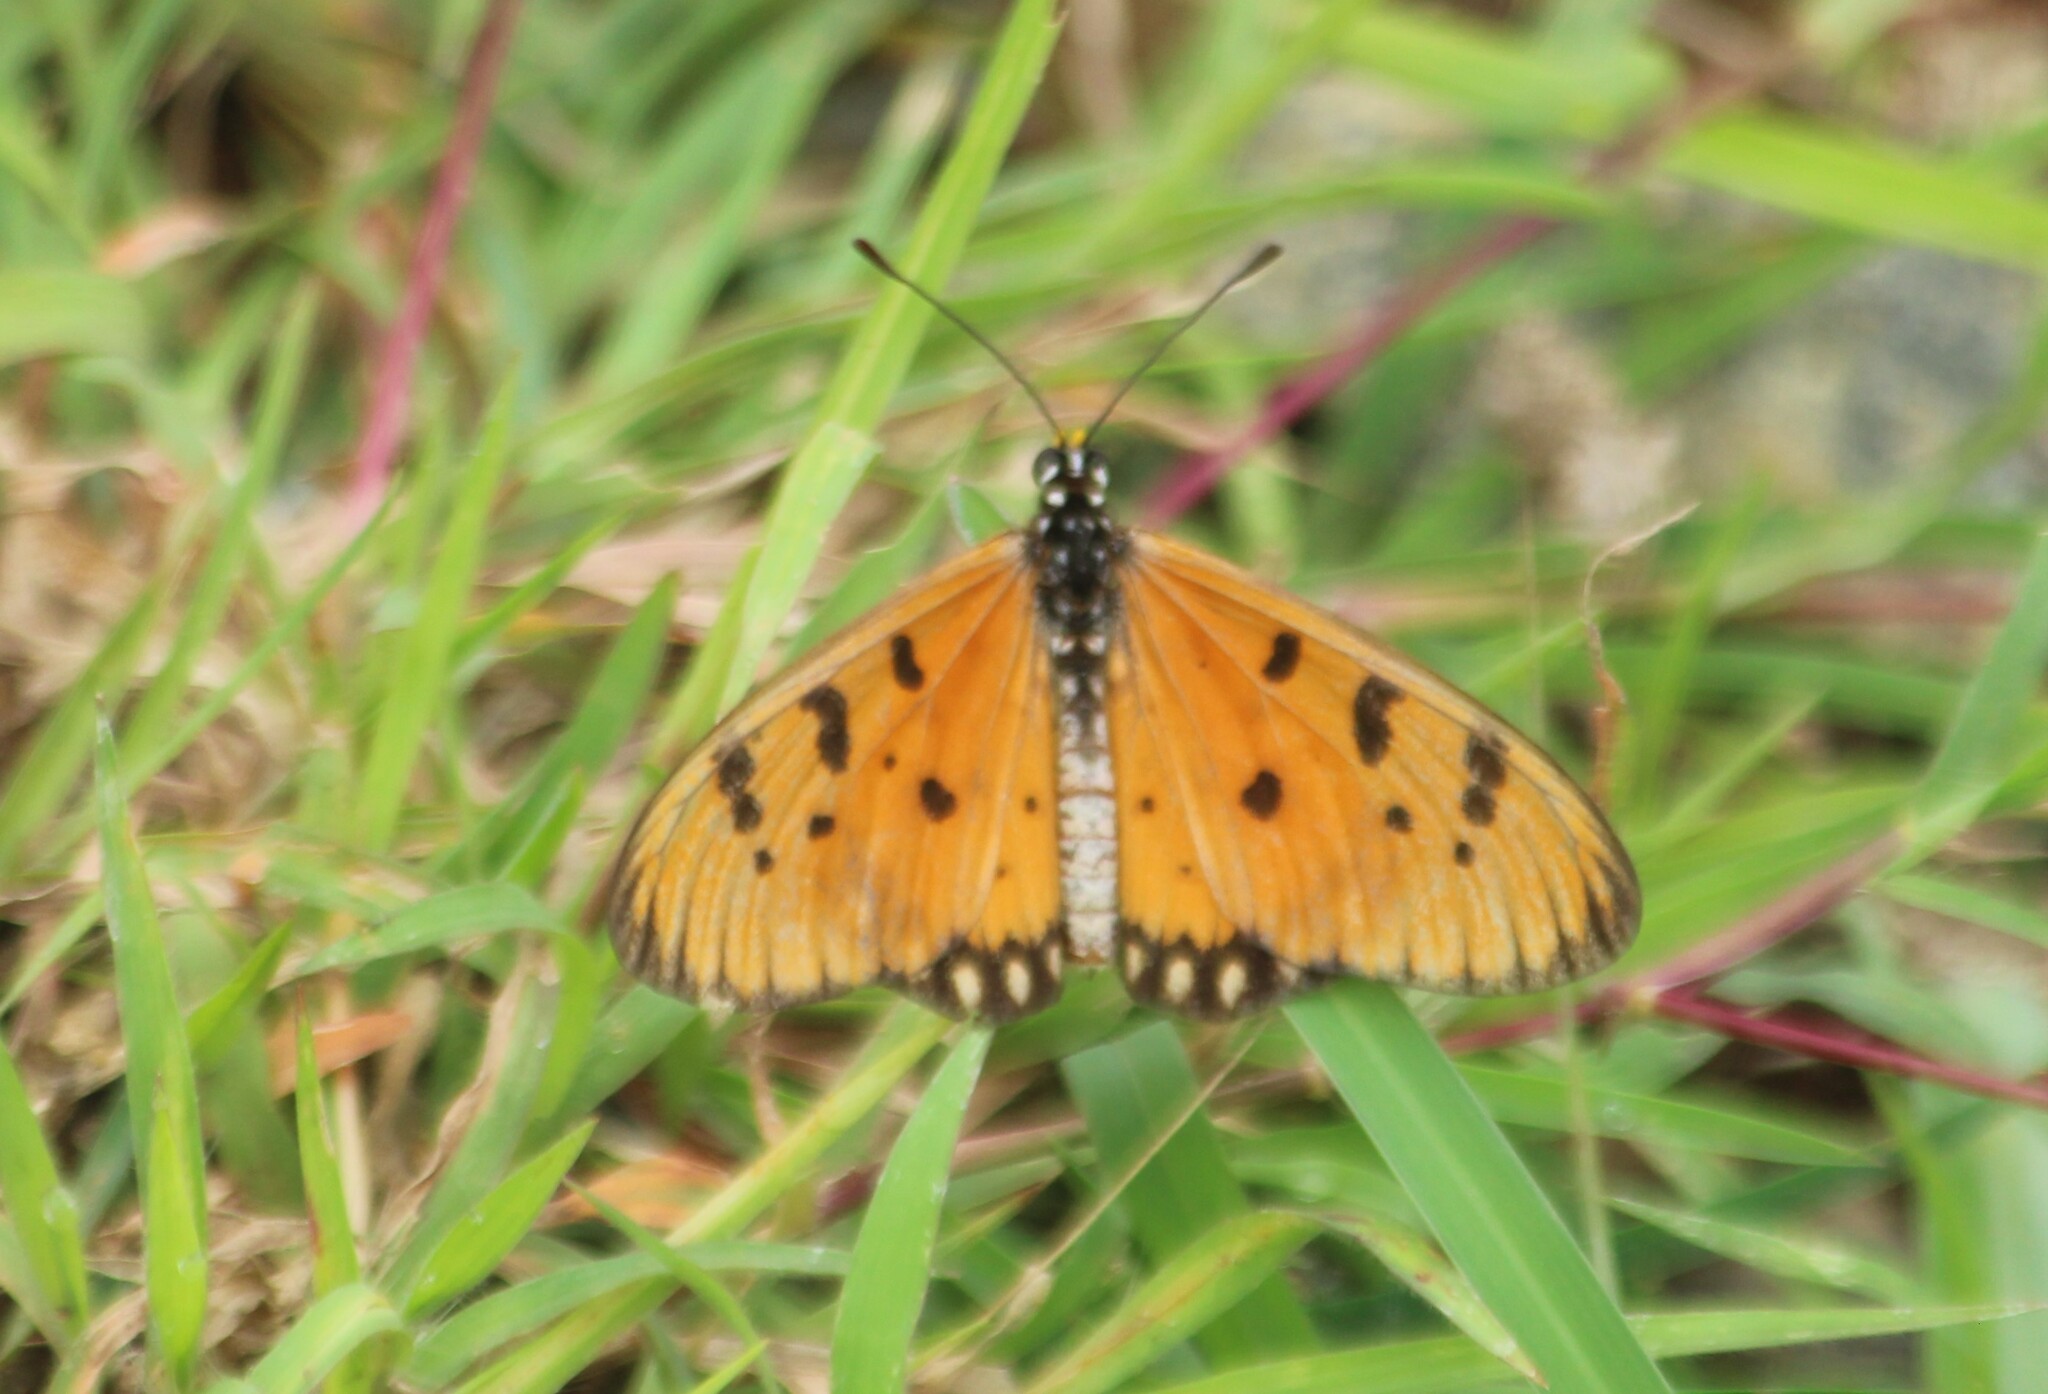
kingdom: Animalia
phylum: Arthropoda
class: Insecta
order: Lepidoptera
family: Nymphalidae
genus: Acraea
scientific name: Acraea terpsicore
